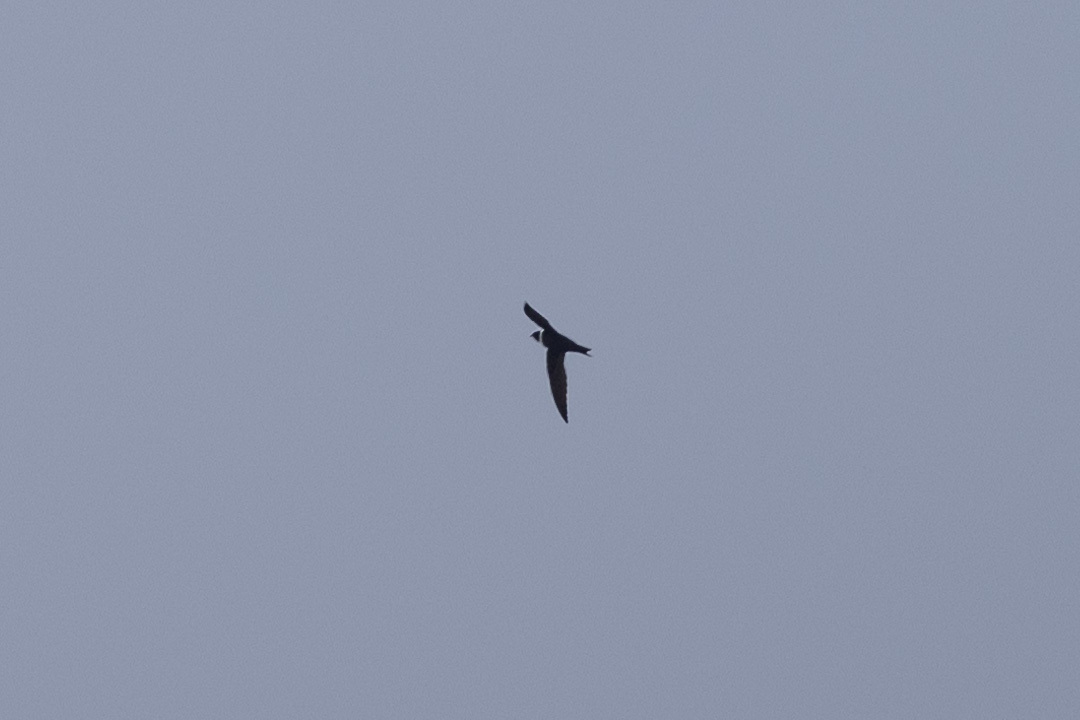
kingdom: Animalia
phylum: Chordata
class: Aves
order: Apodiformes
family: Apodidae
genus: Streptoprocne
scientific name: Streptoprocne zonaris
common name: White-collared swift
